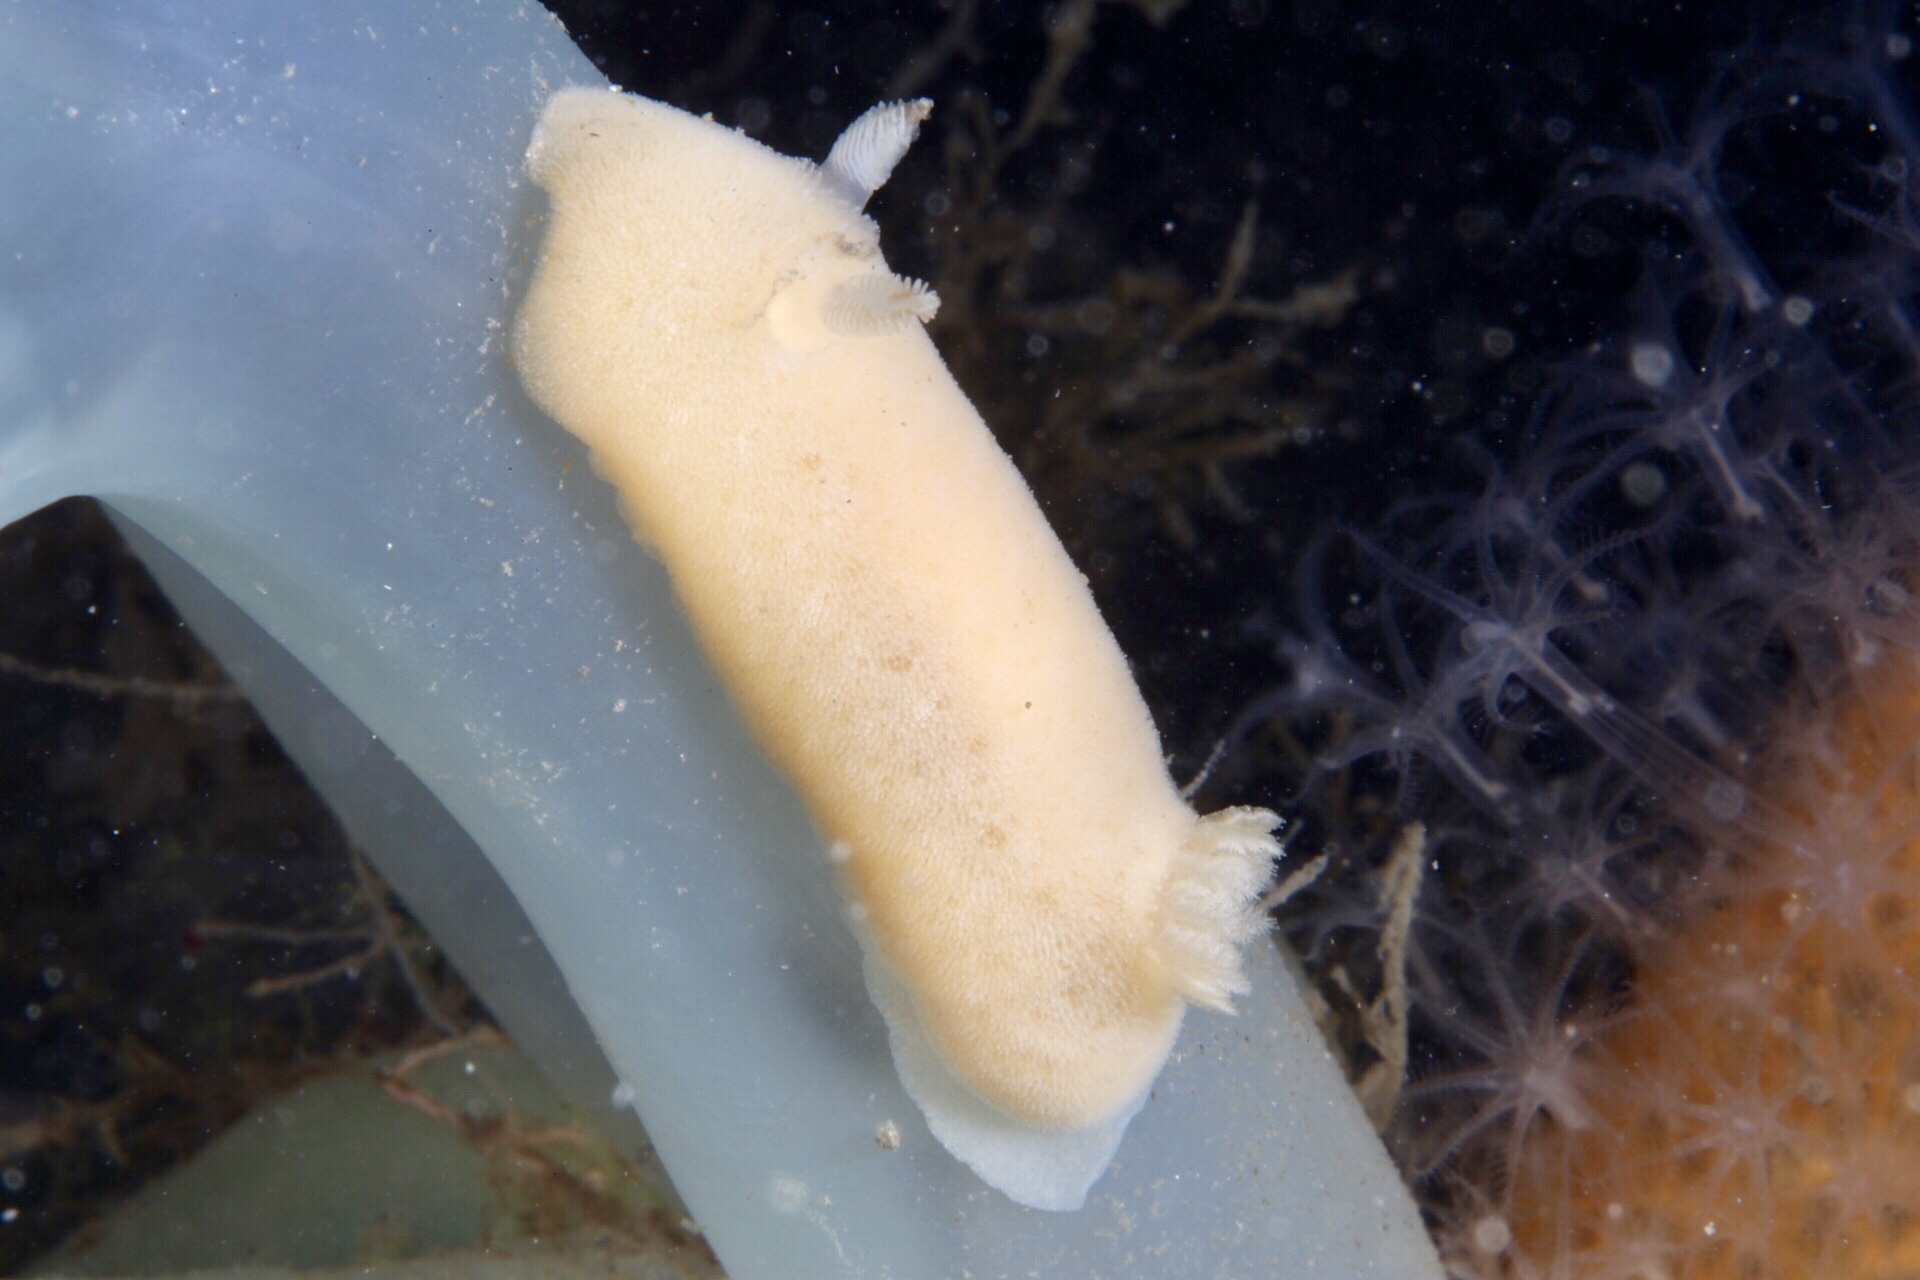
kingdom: Animalia
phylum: Mollusca
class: Gastropoda
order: Nudibranchia
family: Discodorididae
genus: Jorunna
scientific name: Jorunna tomentosa
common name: Grey sea slug
